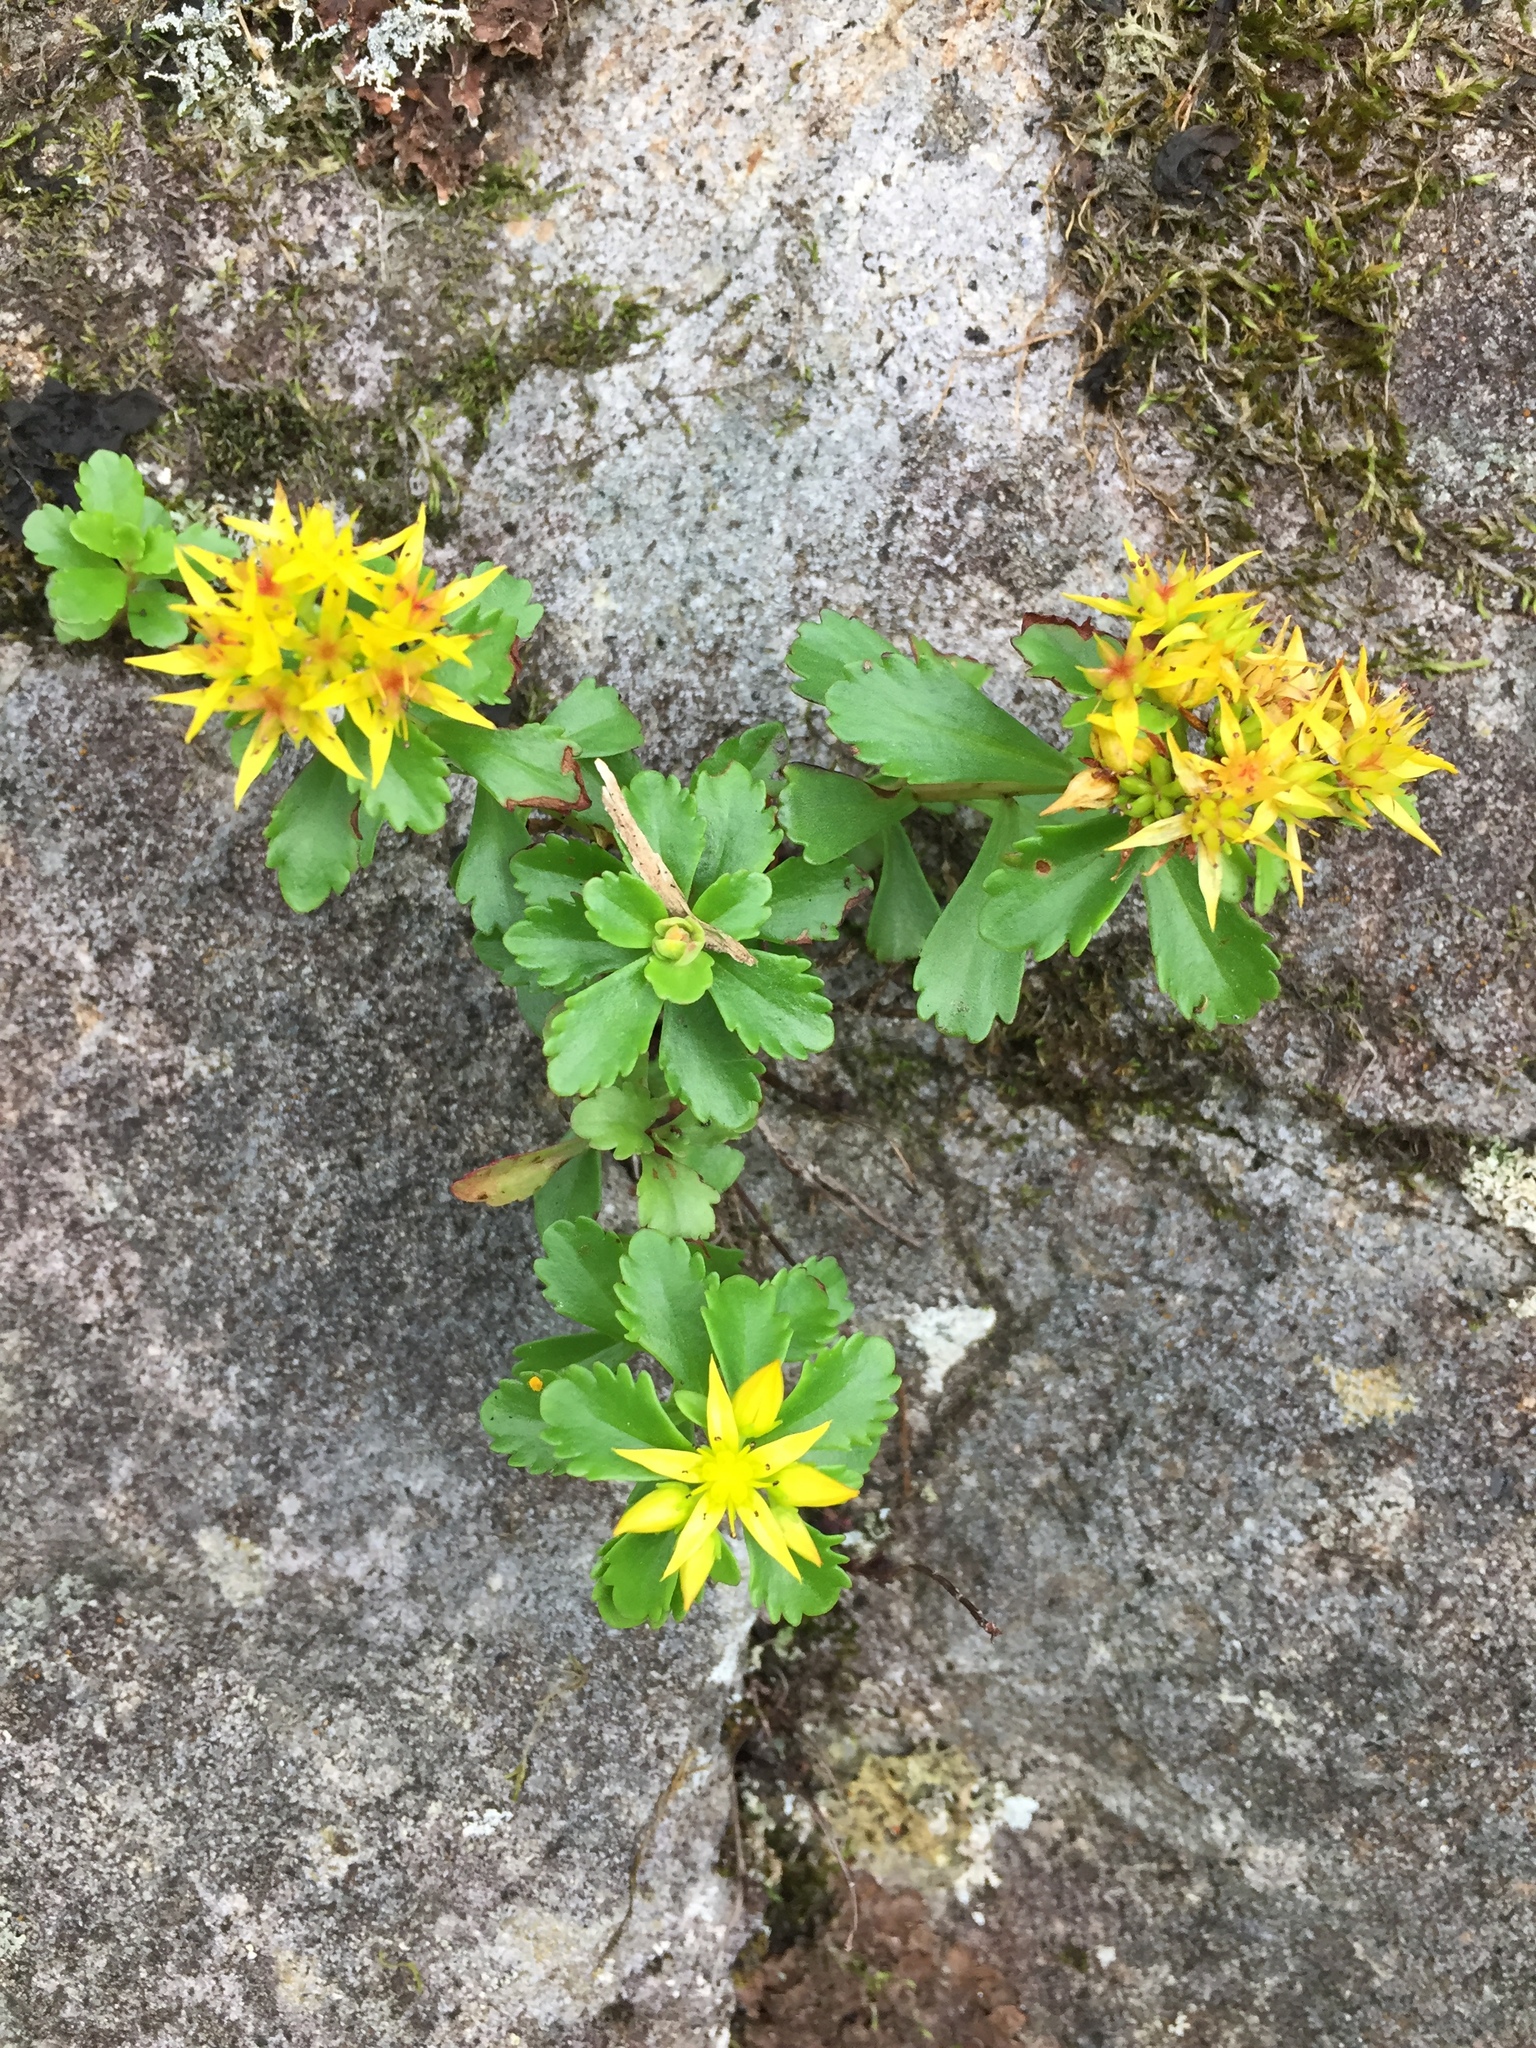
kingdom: Plantae
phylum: Tracheophyta
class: Magnoliopsida
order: Saxifragales
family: Crassulaceae
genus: Phedimus
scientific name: Phedimus kamtschaticus
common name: Orange stonecrop
